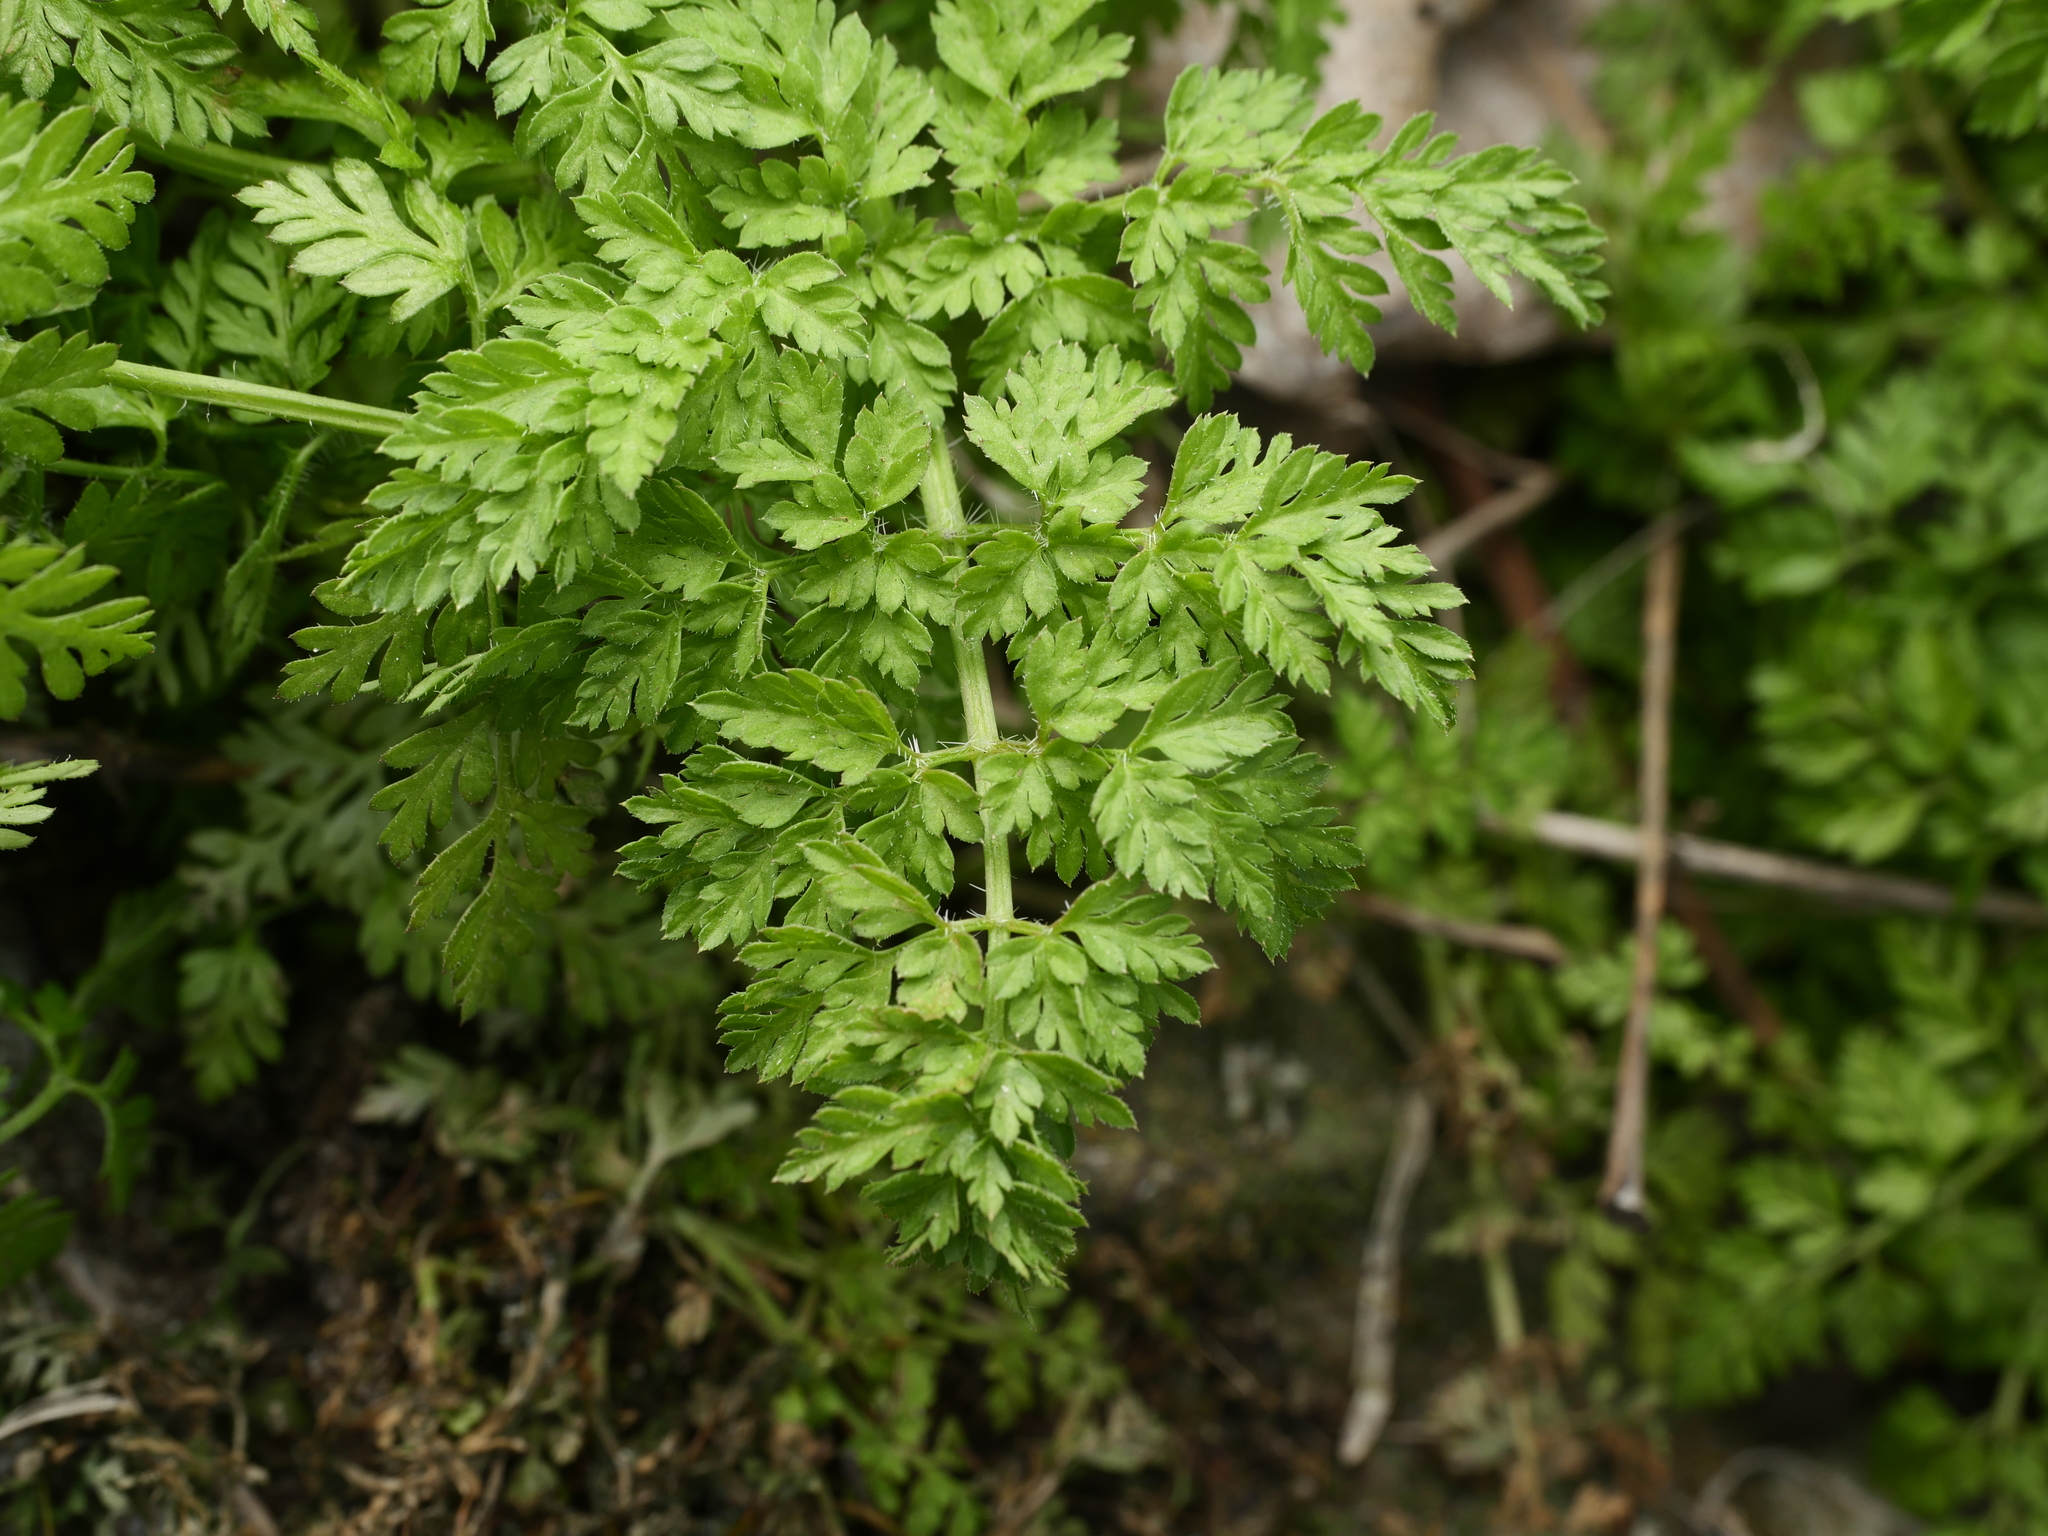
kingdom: Plantae
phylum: Tracheophyta
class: Magnoliopsida
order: Apiales
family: Apiaceae
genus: Anthriscus
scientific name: Anthriscus caucalis
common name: Bur chervil
